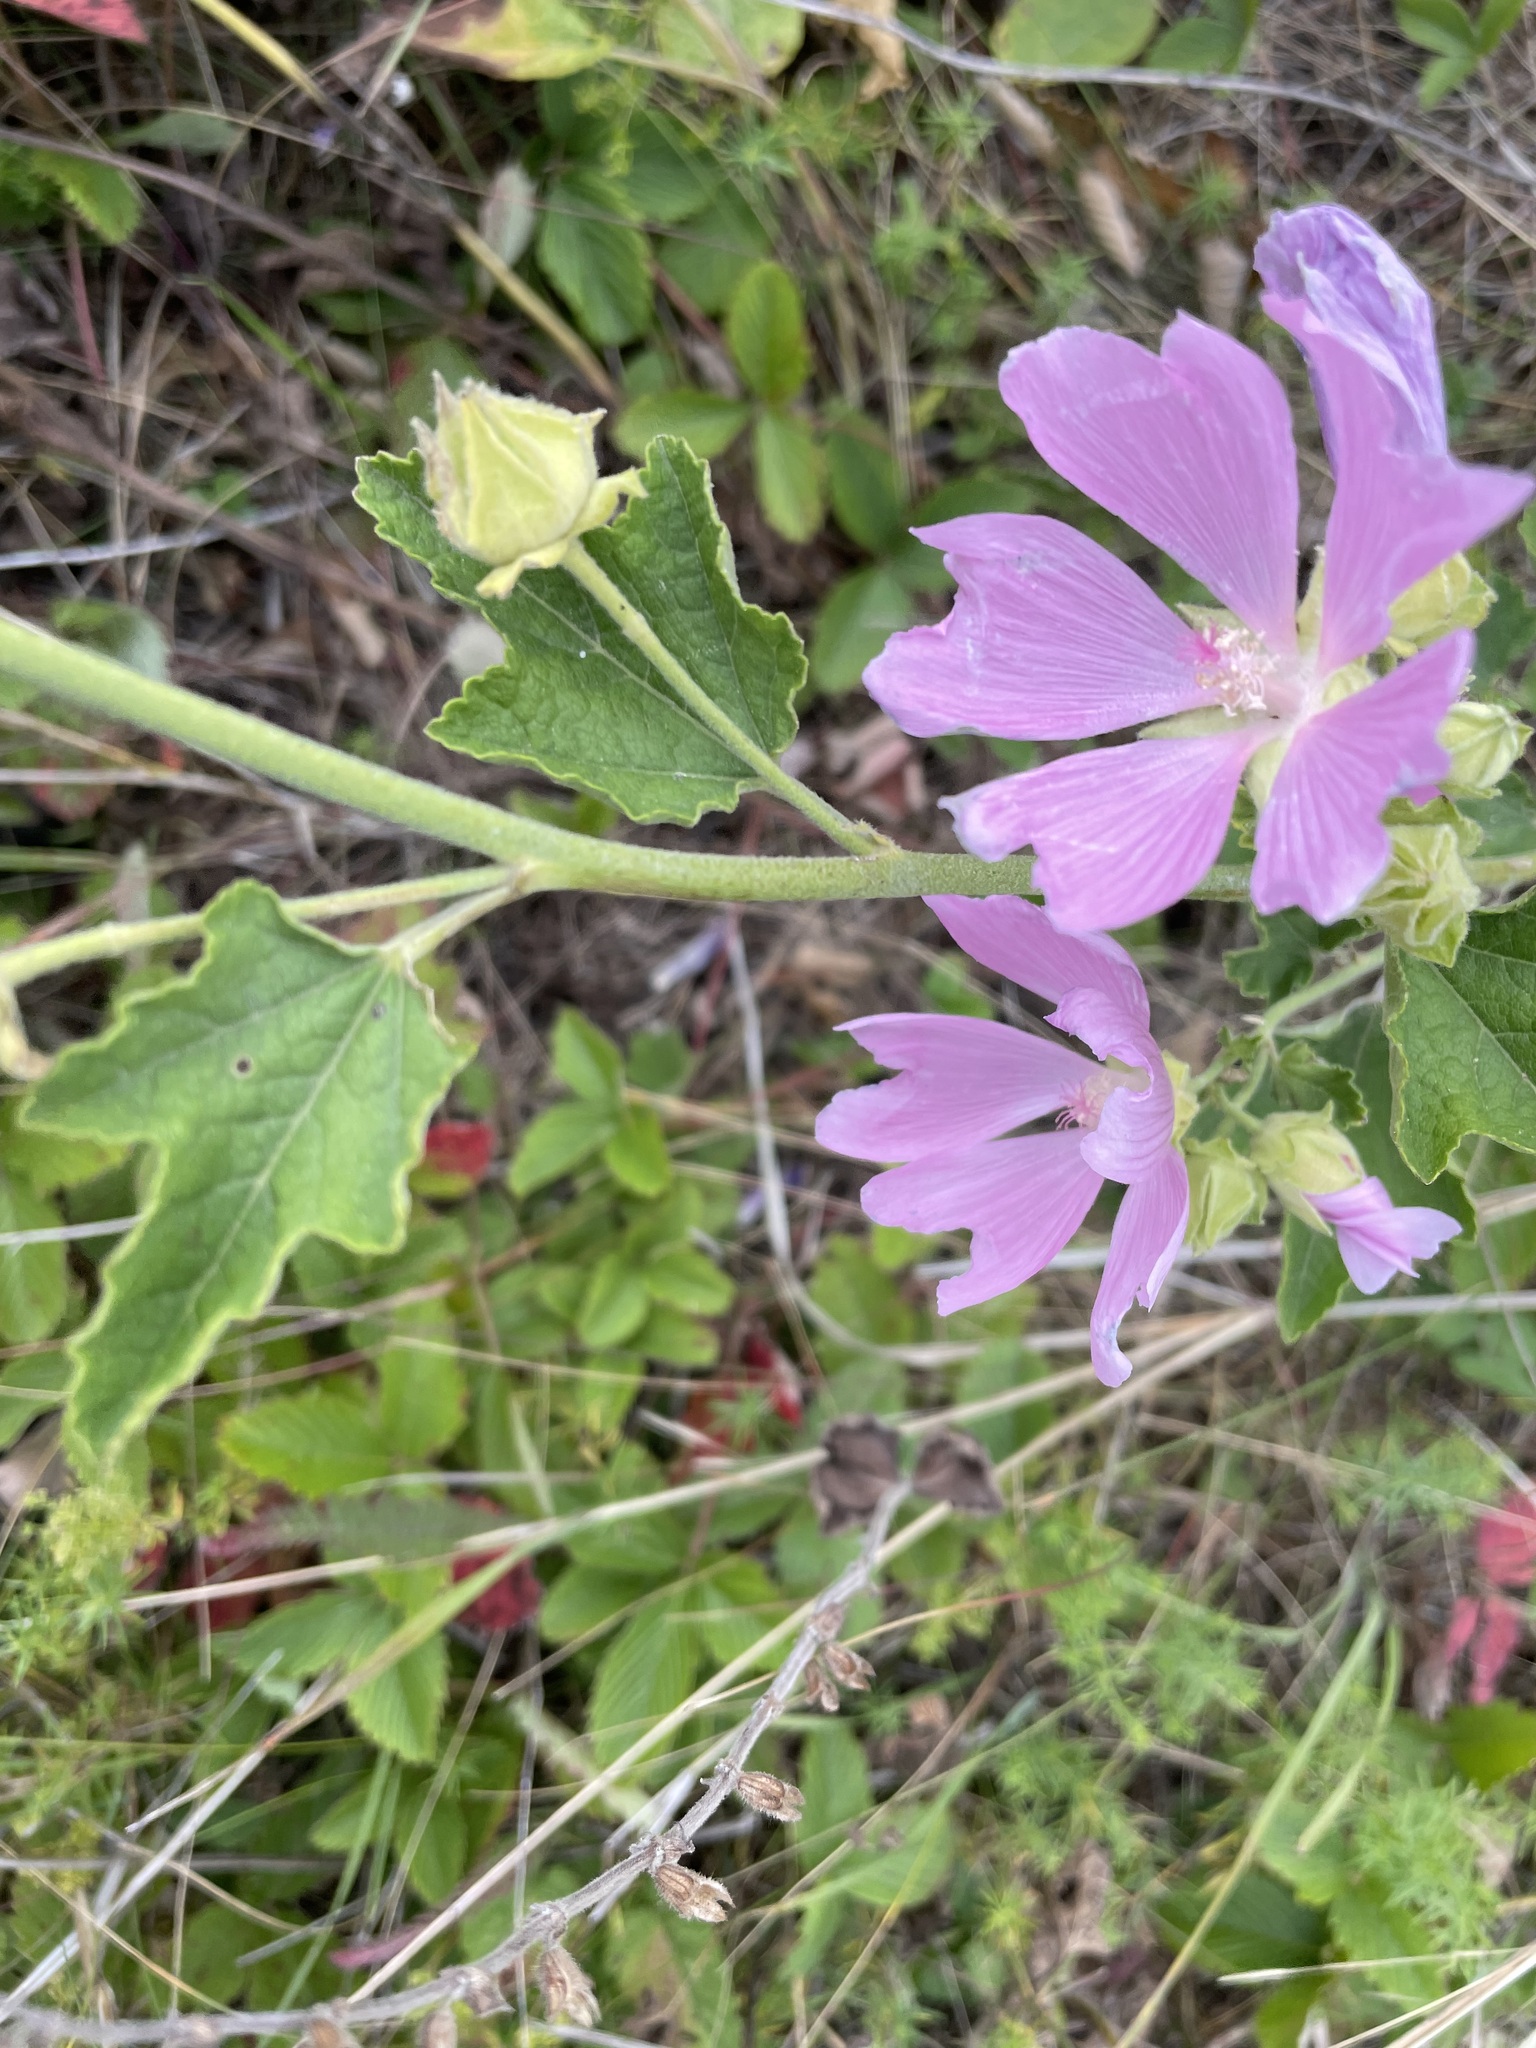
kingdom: Plantae
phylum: Tracheophyta
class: Magnoliopsida
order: Malvales
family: Malvaceae
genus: Malva
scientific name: Malva thuringiaca
